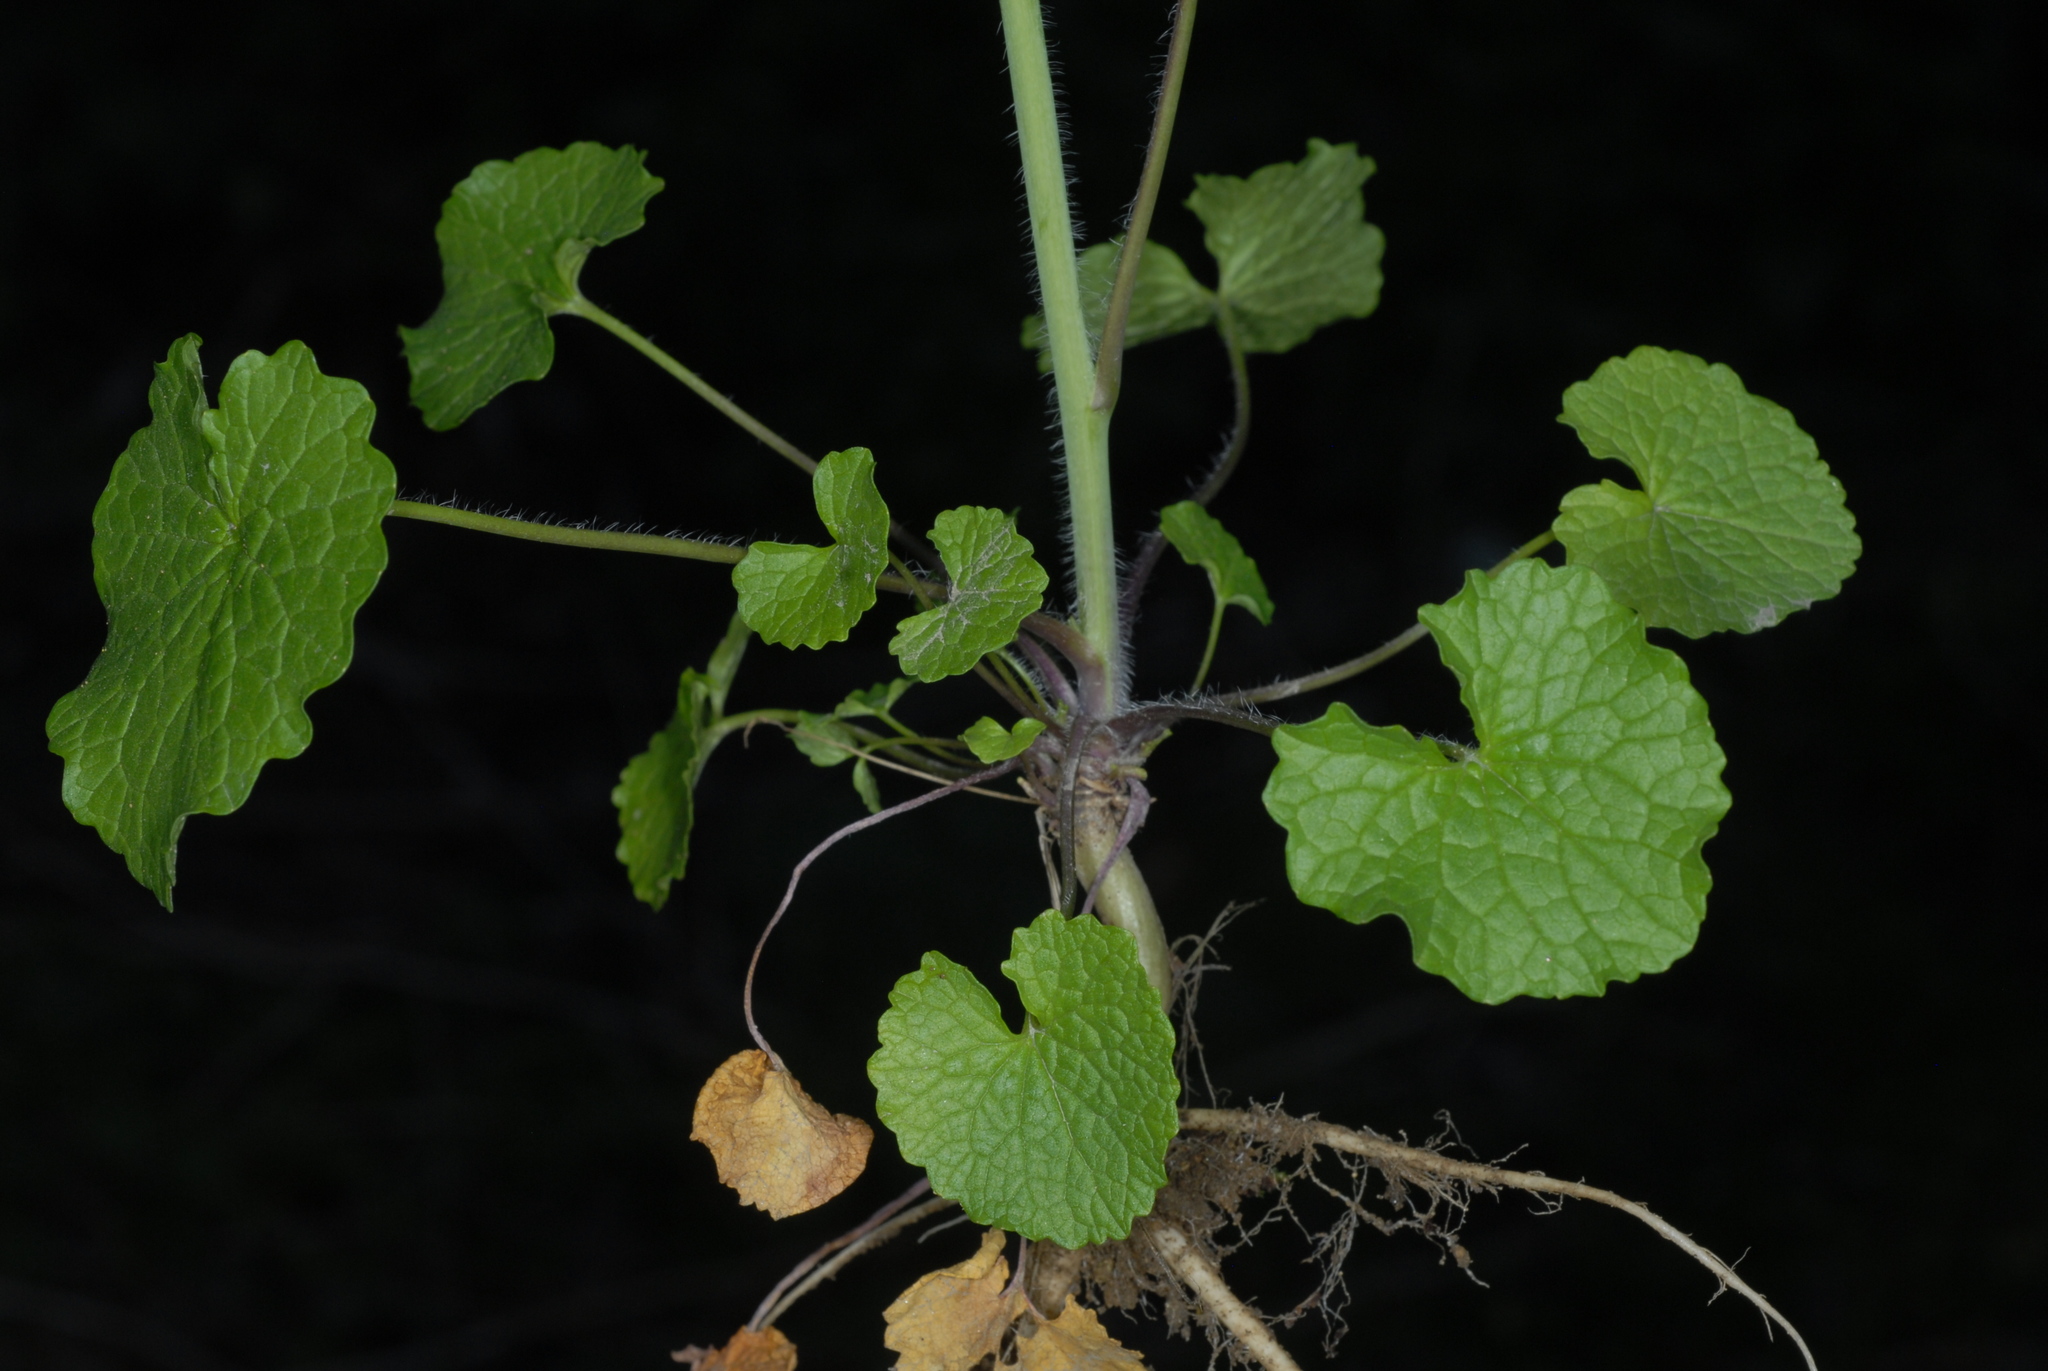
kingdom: Plantae
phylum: Tracheophyta
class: Magnoliopsida
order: Brassicales
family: Brassicaceae
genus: Alliaria
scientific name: Alliaria petiolata
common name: Garlic mustard
